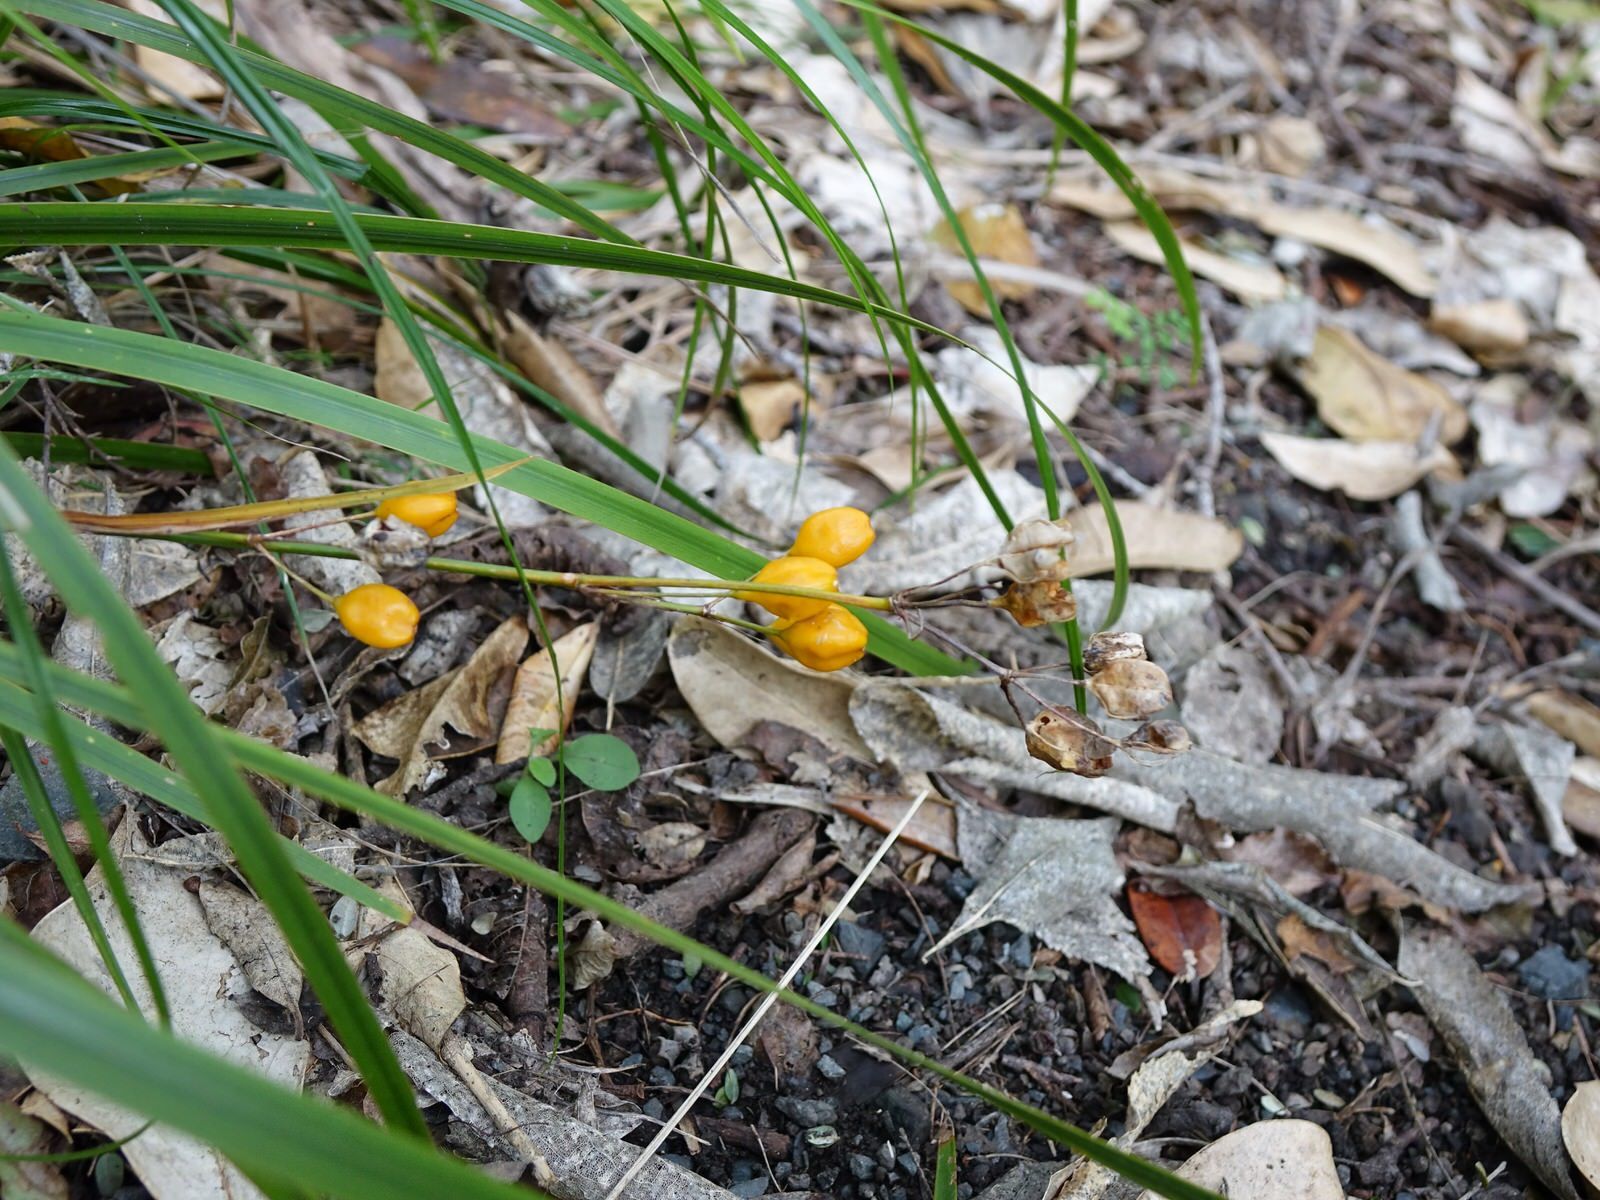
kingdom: Plantae
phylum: Tracheophyta
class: Liliopsida
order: Asparagales
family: Iridaceae
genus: Libertia
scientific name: Libertia ixioides
